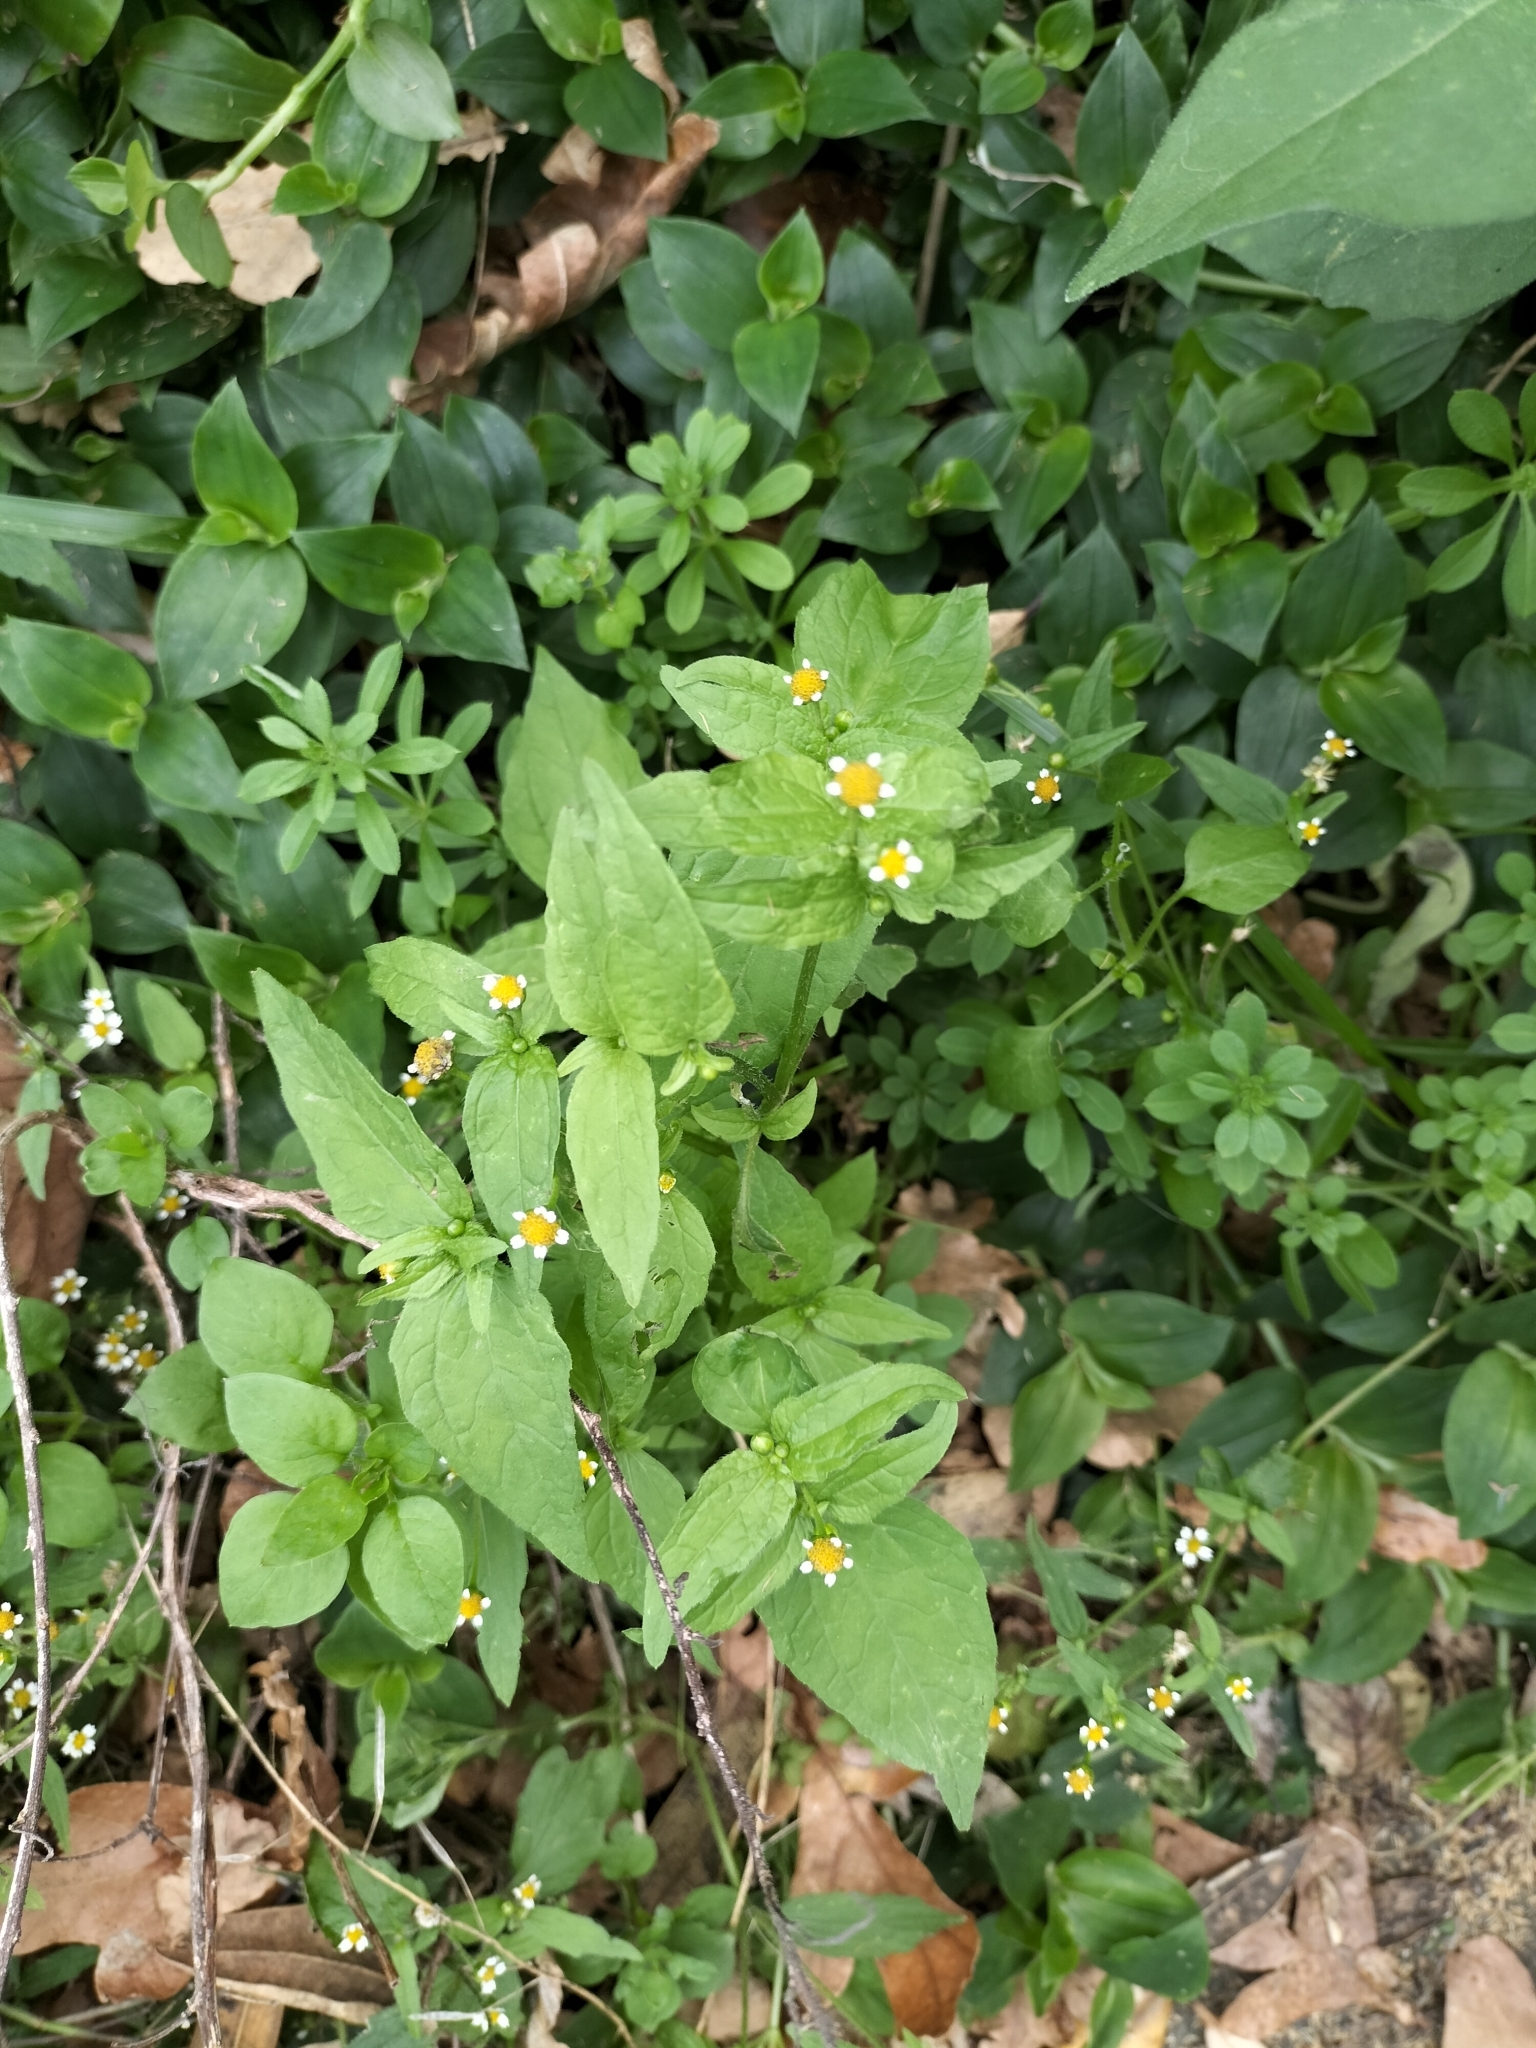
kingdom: Plantae
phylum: Tracheophyta
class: Magnoliopsida
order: Asterales
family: Asteraceae
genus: Galinsoga
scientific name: Galinsoga parviflora
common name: Gallant soldier
